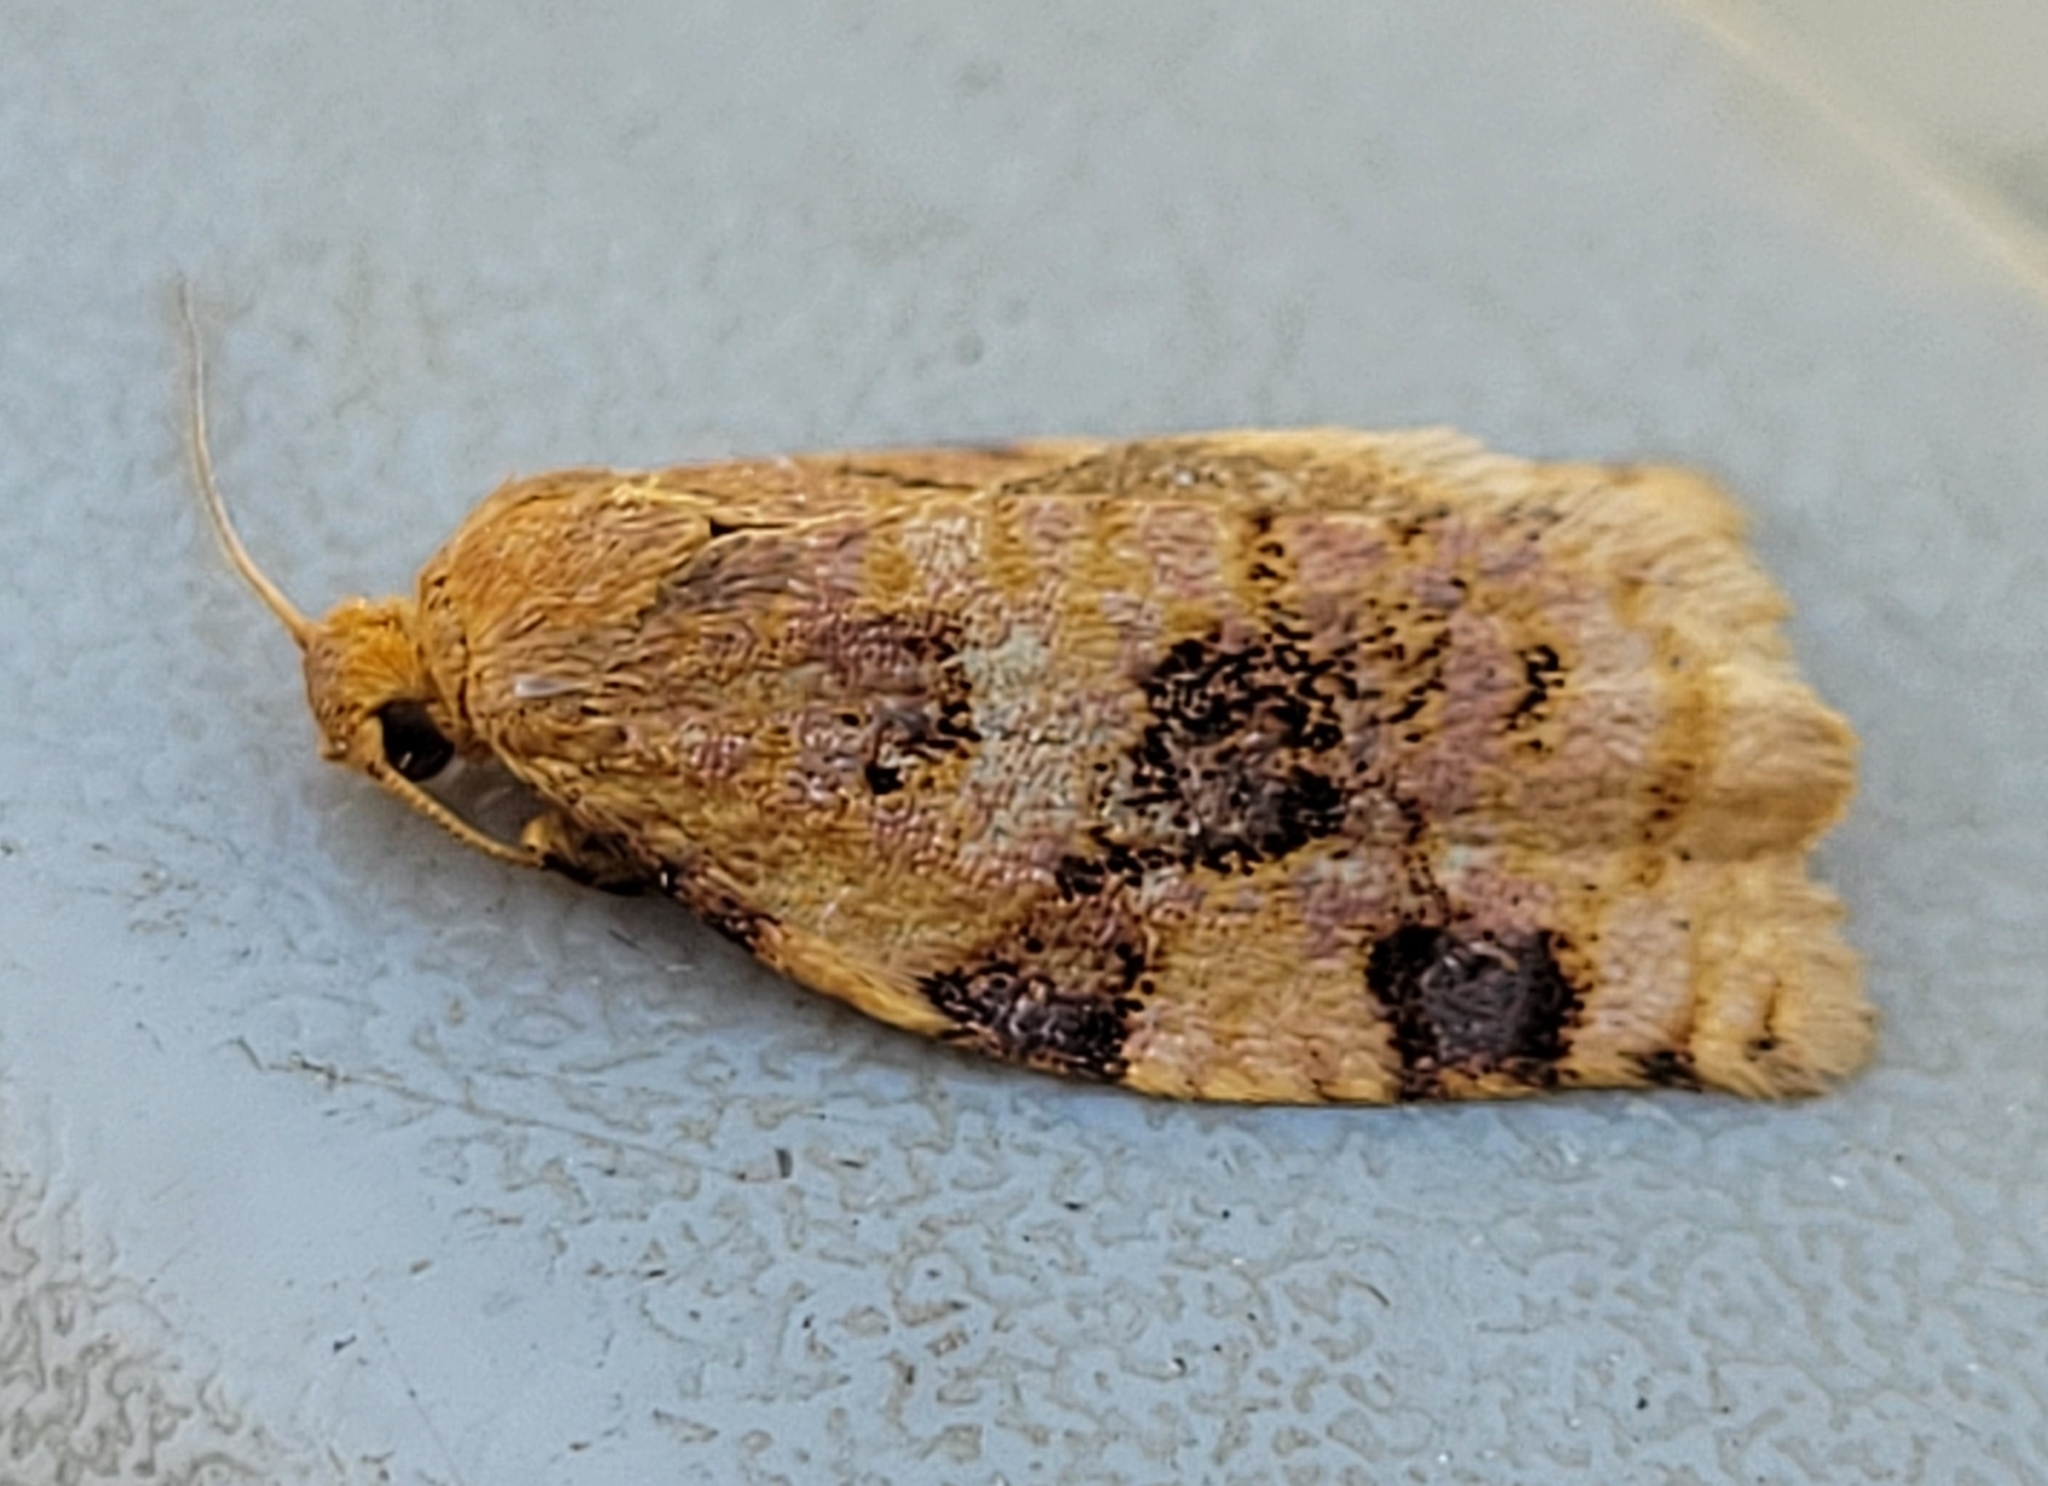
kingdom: Animalia
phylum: Arthropoda
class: Insecta
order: Lepidoptera
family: Tortricidae
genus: Archips
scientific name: Archips cerasivorana
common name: Uglynest caterpillar
